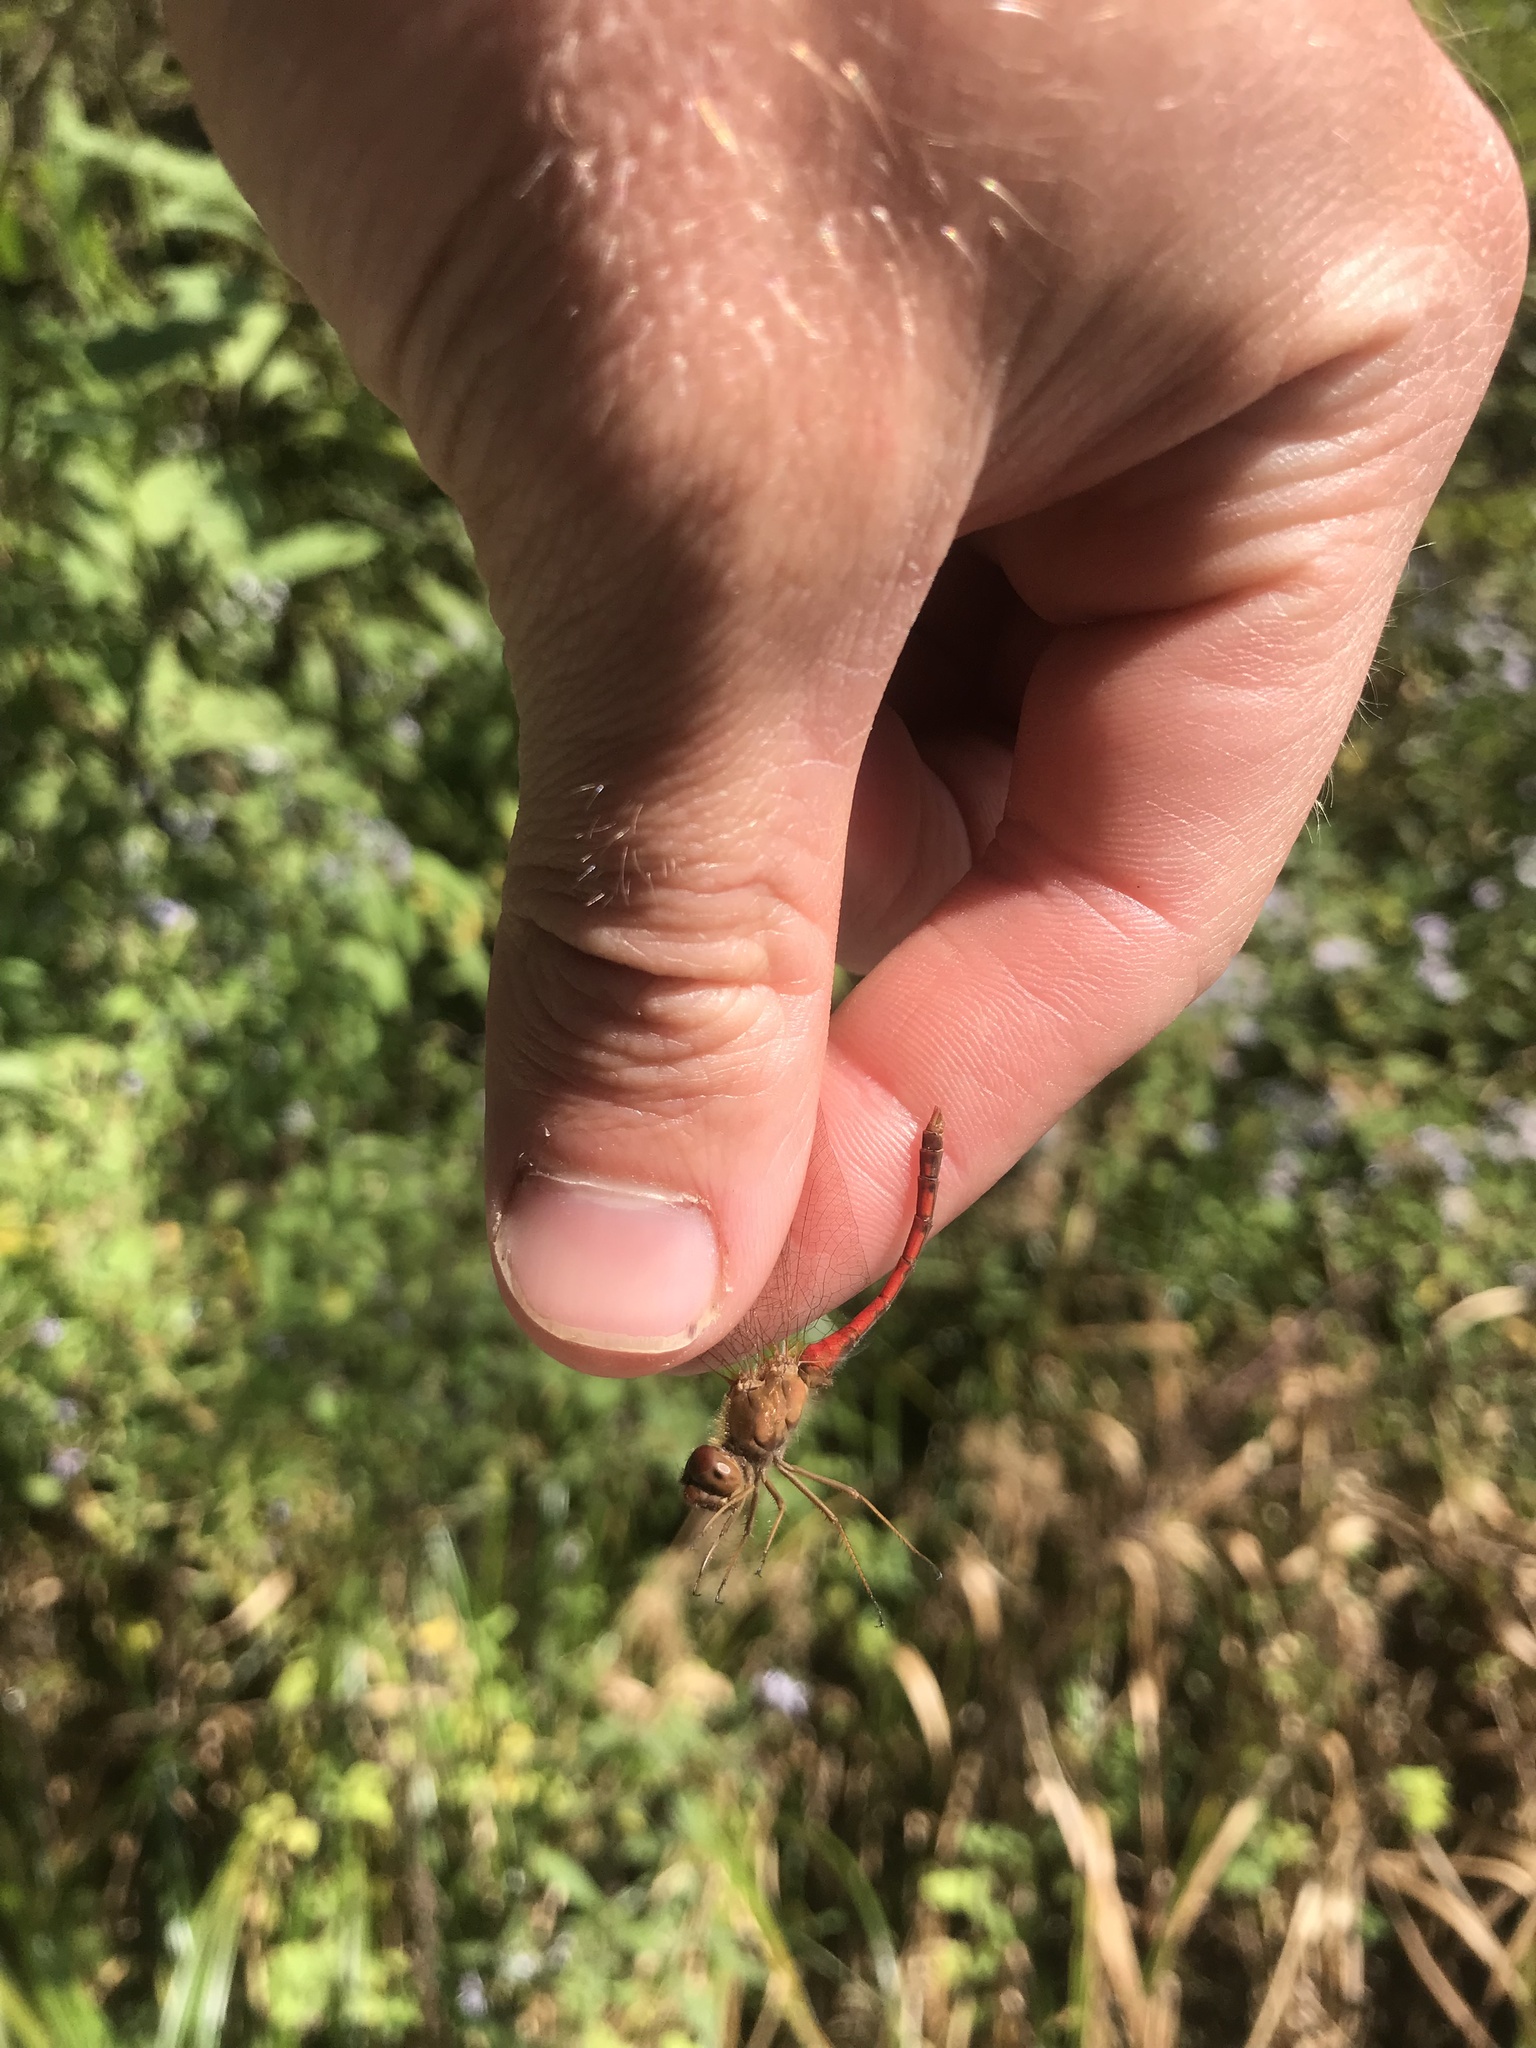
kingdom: Animalia
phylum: Arthropoda
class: Insecta
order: Odonata
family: Libellulidae
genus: Sympetrum
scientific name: Sympetrum vicinum
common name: Autumn meadowhawk
